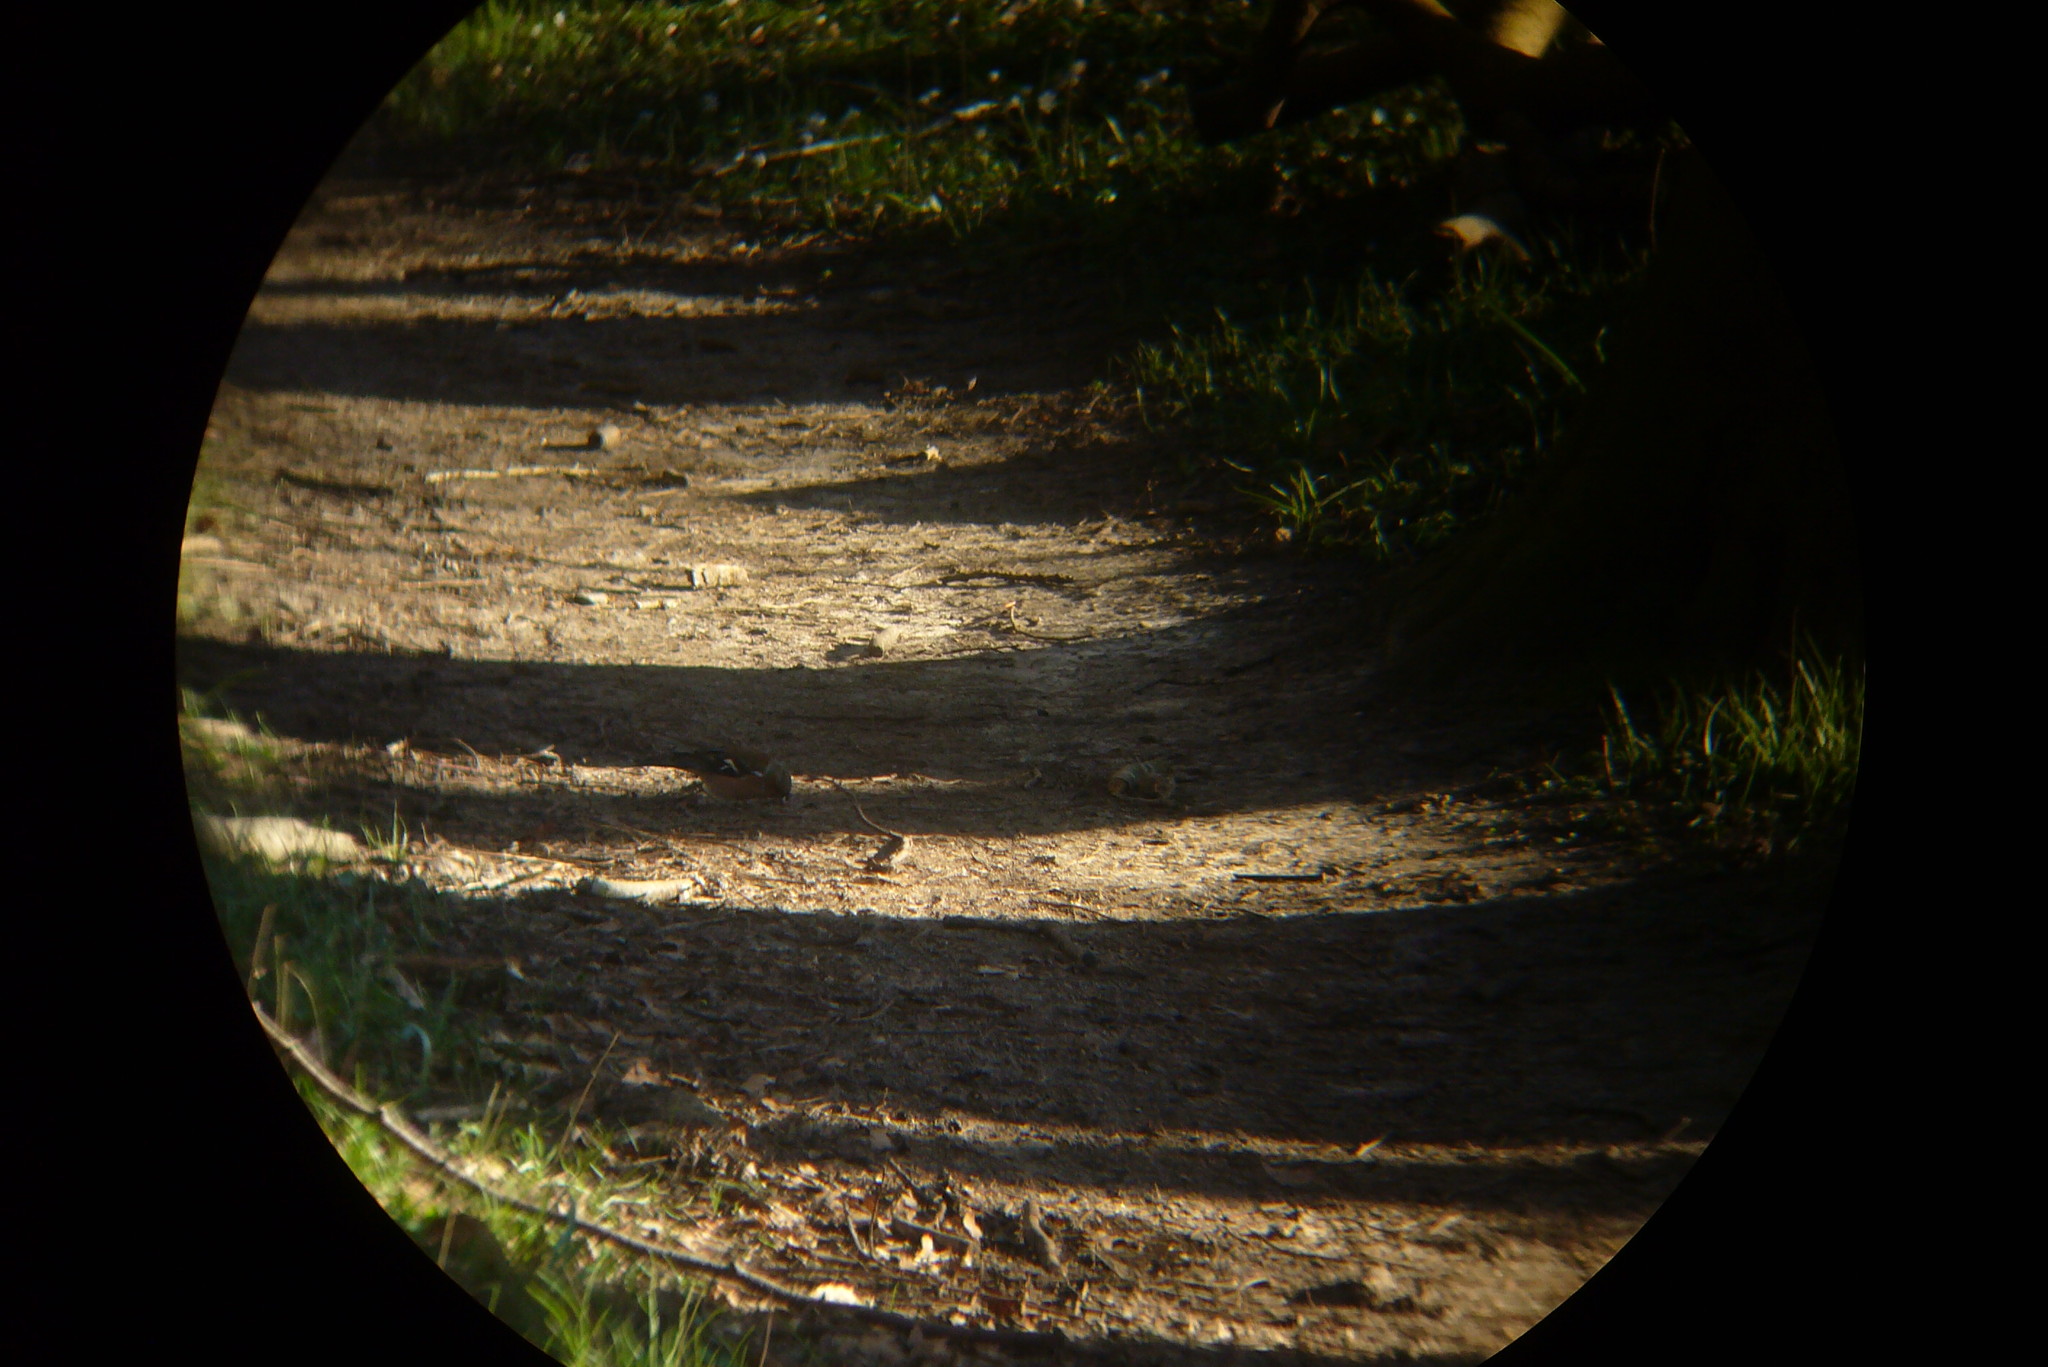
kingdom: Animalia
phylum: Chordata
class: Aves
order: Passeriformes
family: Fringillidae
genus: Fringilla
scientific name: Fringilla coelebs
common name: Common chaffinch
